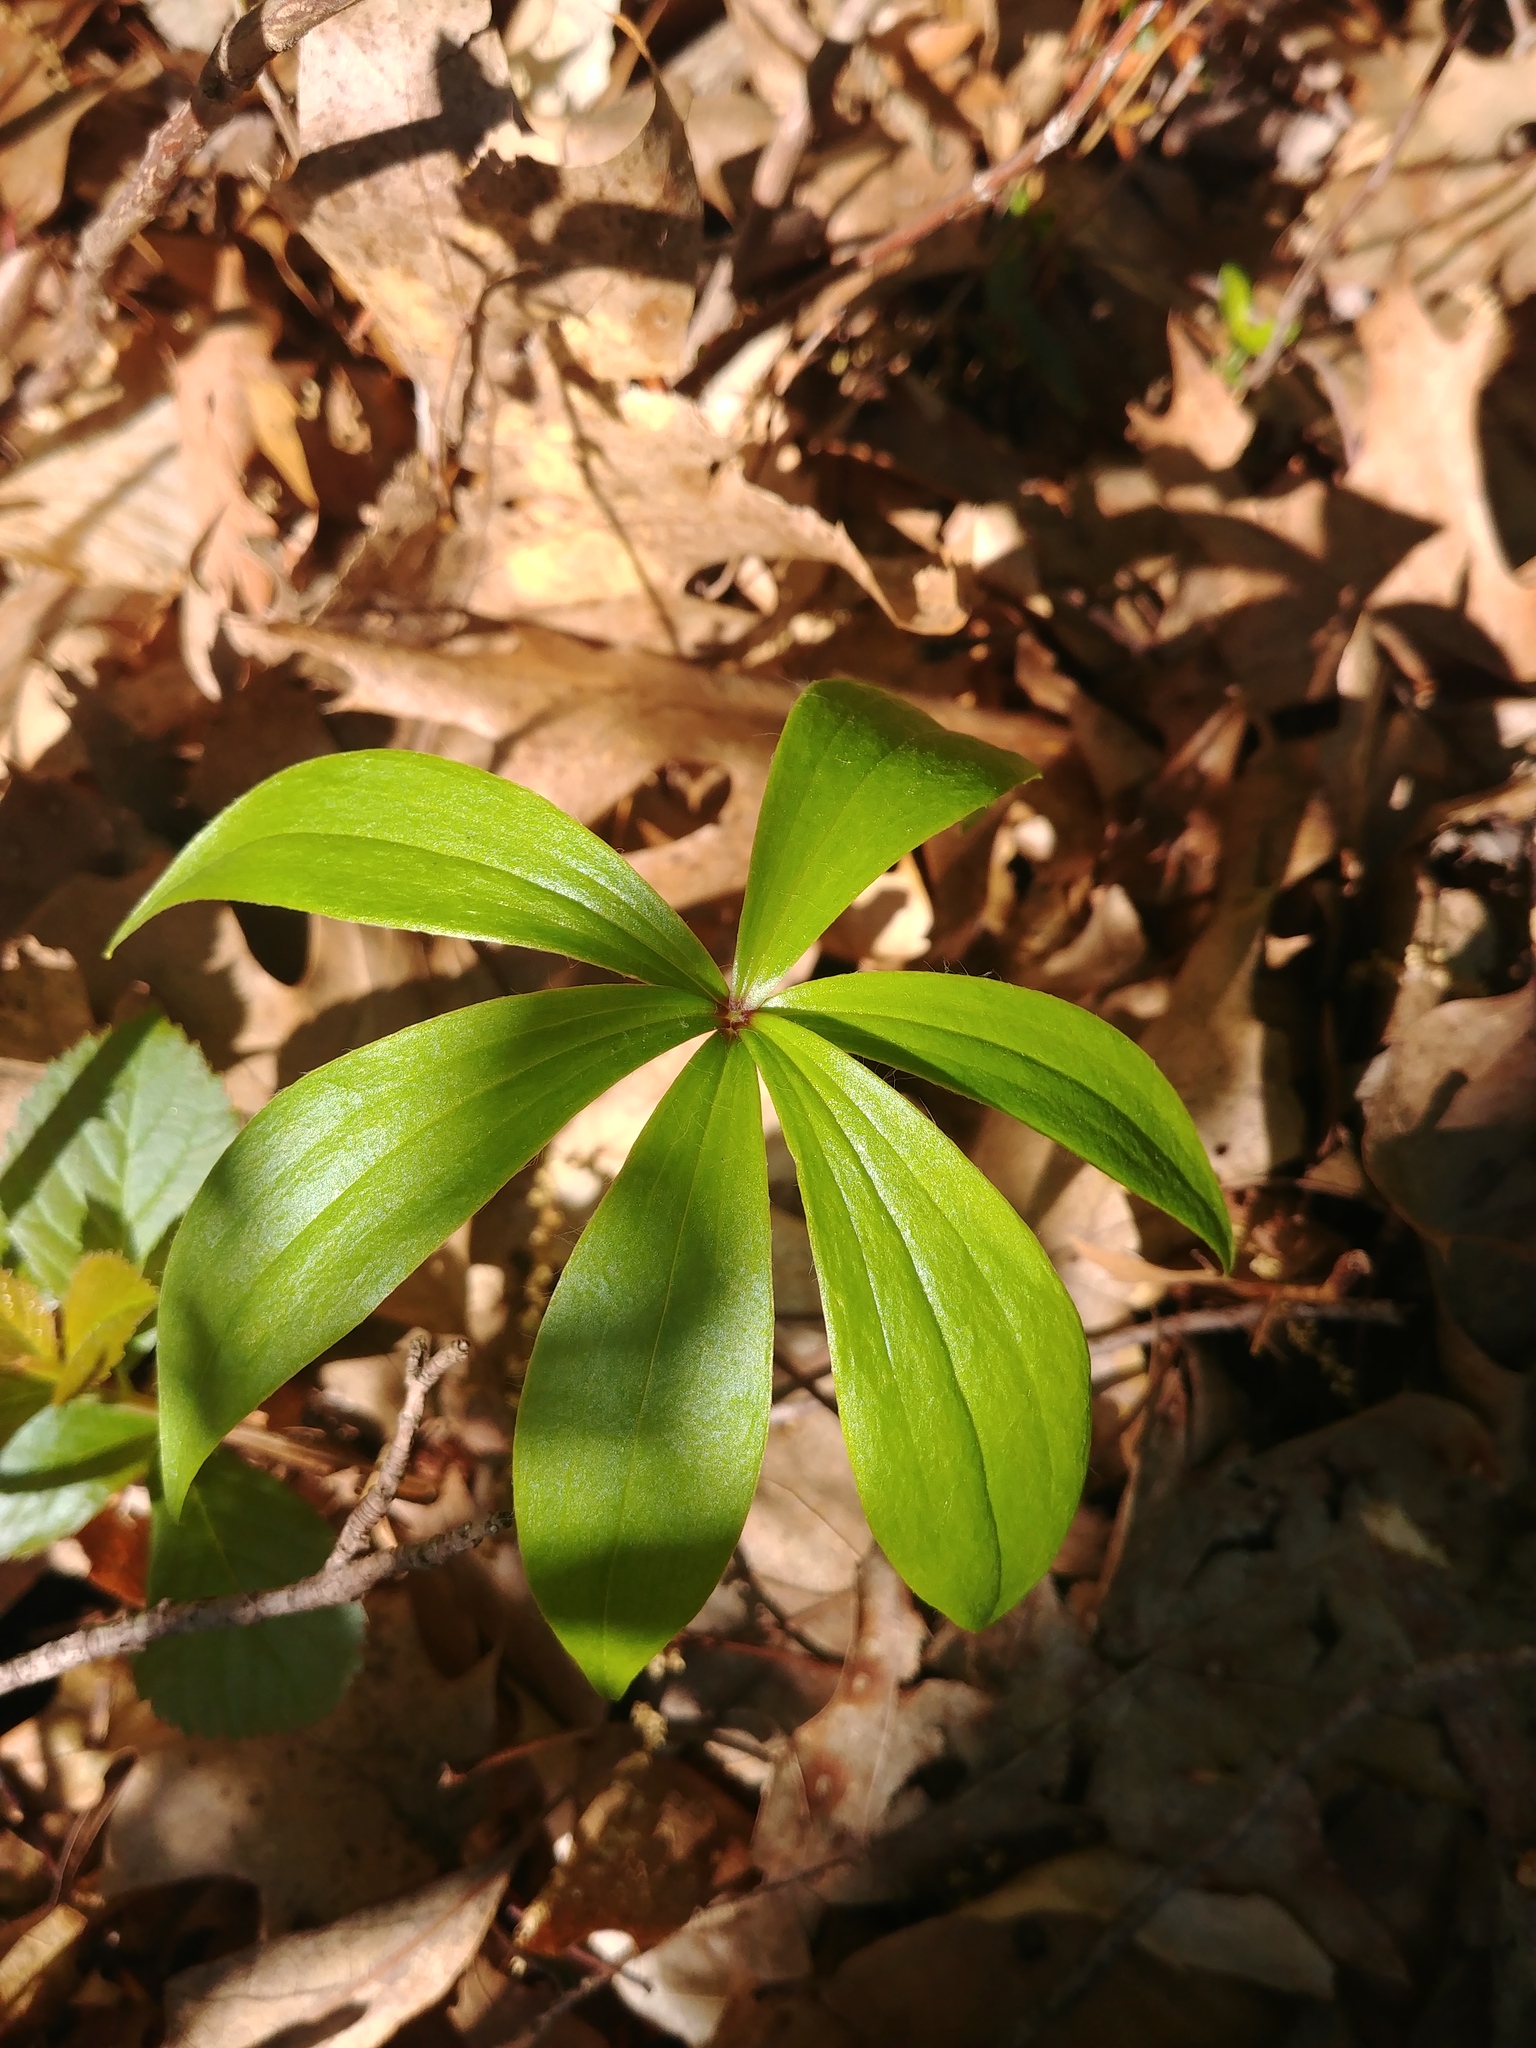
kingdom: Plantae
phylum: Tracheophyta
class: Liliopsida
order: Liliales
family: Liliaceae
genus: Medeola
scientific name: Medeola virginiana
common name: Indian cucumber-root
